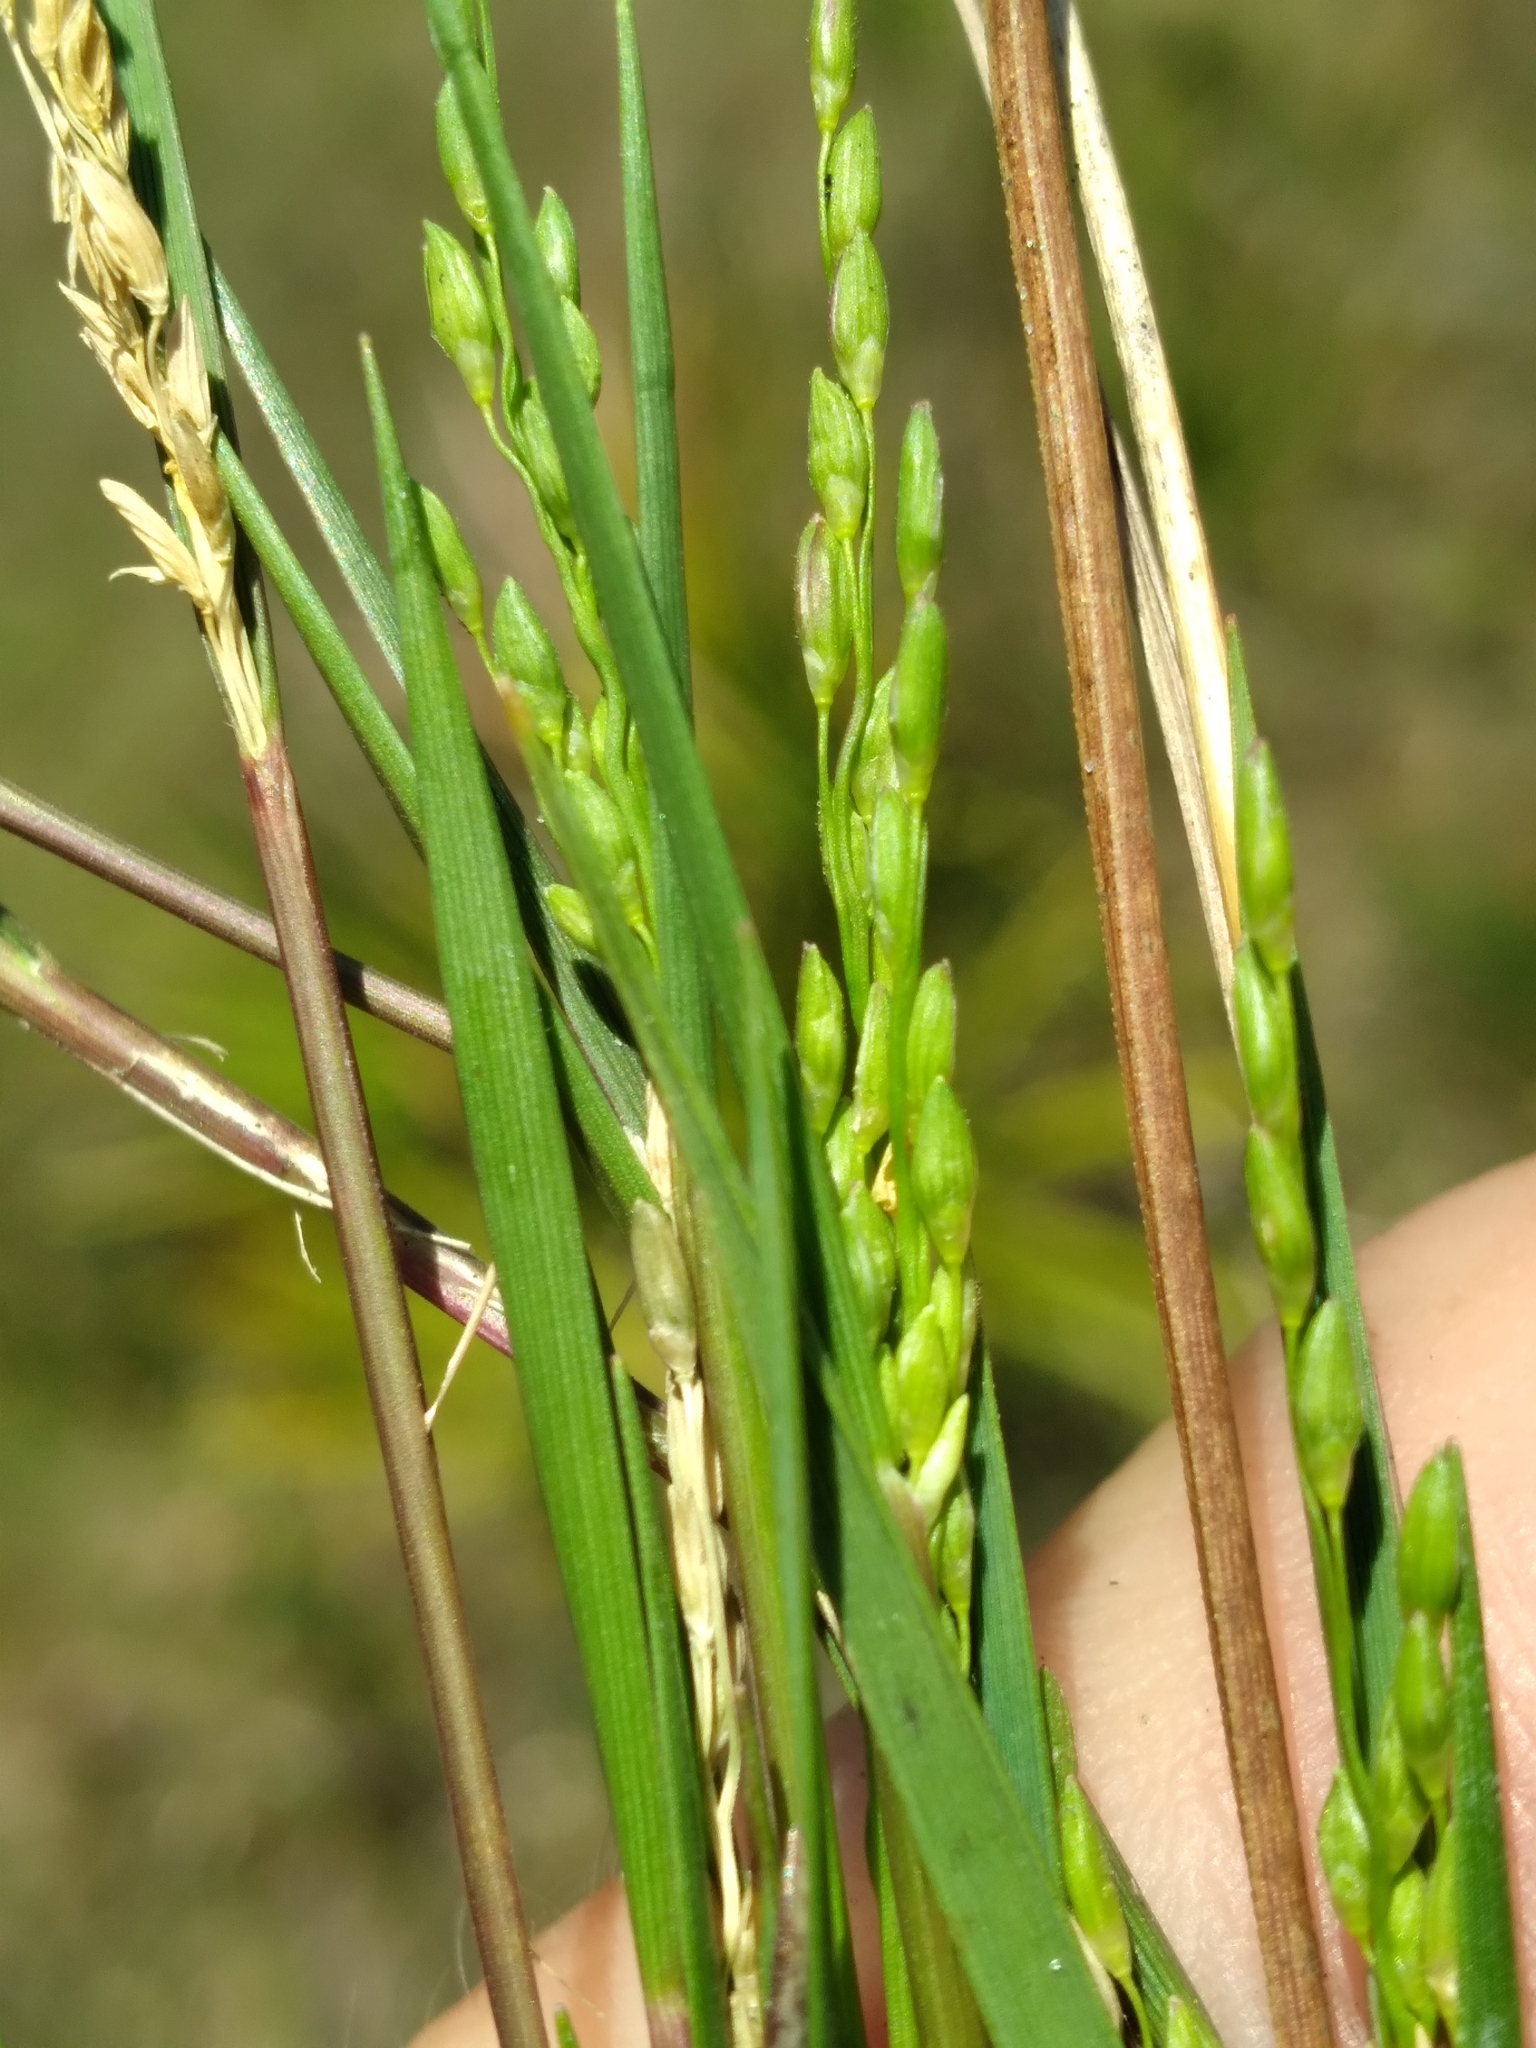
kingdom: Plantae
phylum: Tracheophyta
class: Liliopsida
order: Poales
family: Poaceae
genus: Dichanthelium
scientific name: Dichanthelium pinetorum
